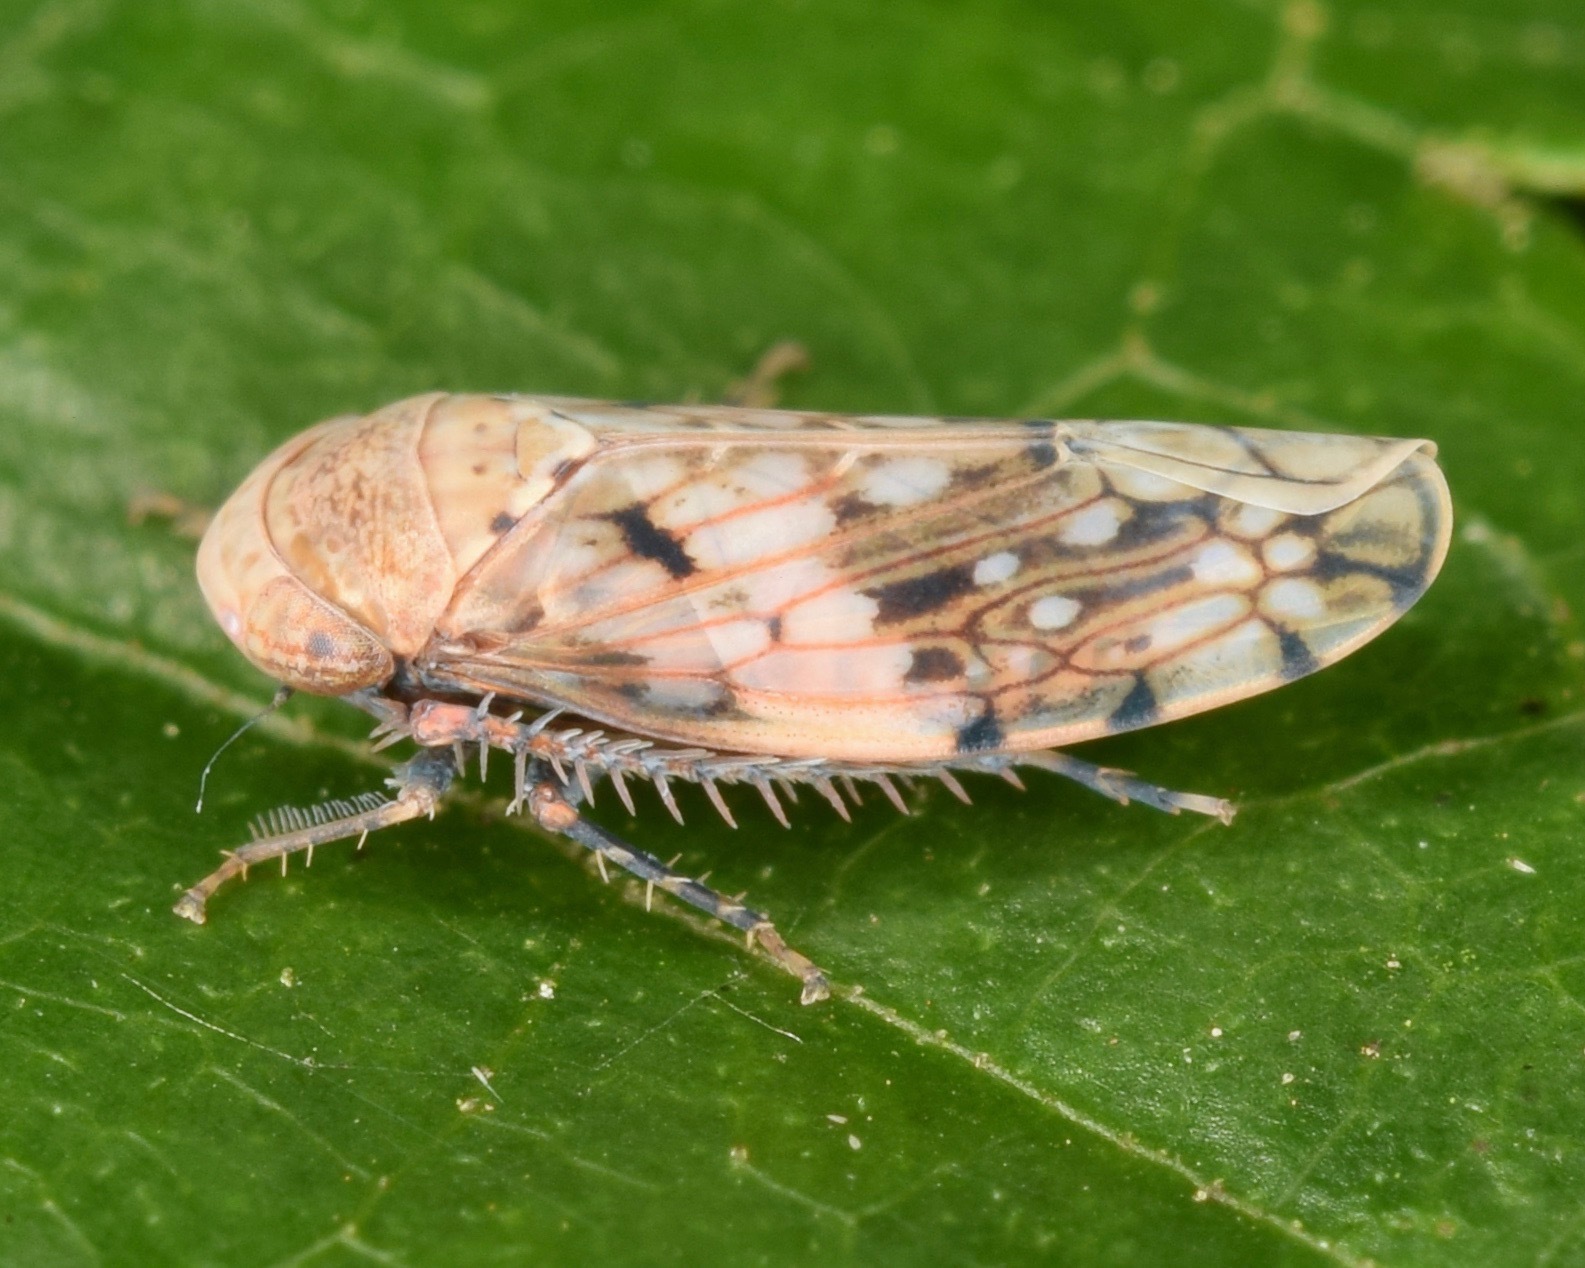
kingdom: Animalia
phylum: Arthropoda
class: Insecta
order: Hemiptera
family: Cicadellidae
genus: Menosoma
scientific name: Menosoma cinctum
